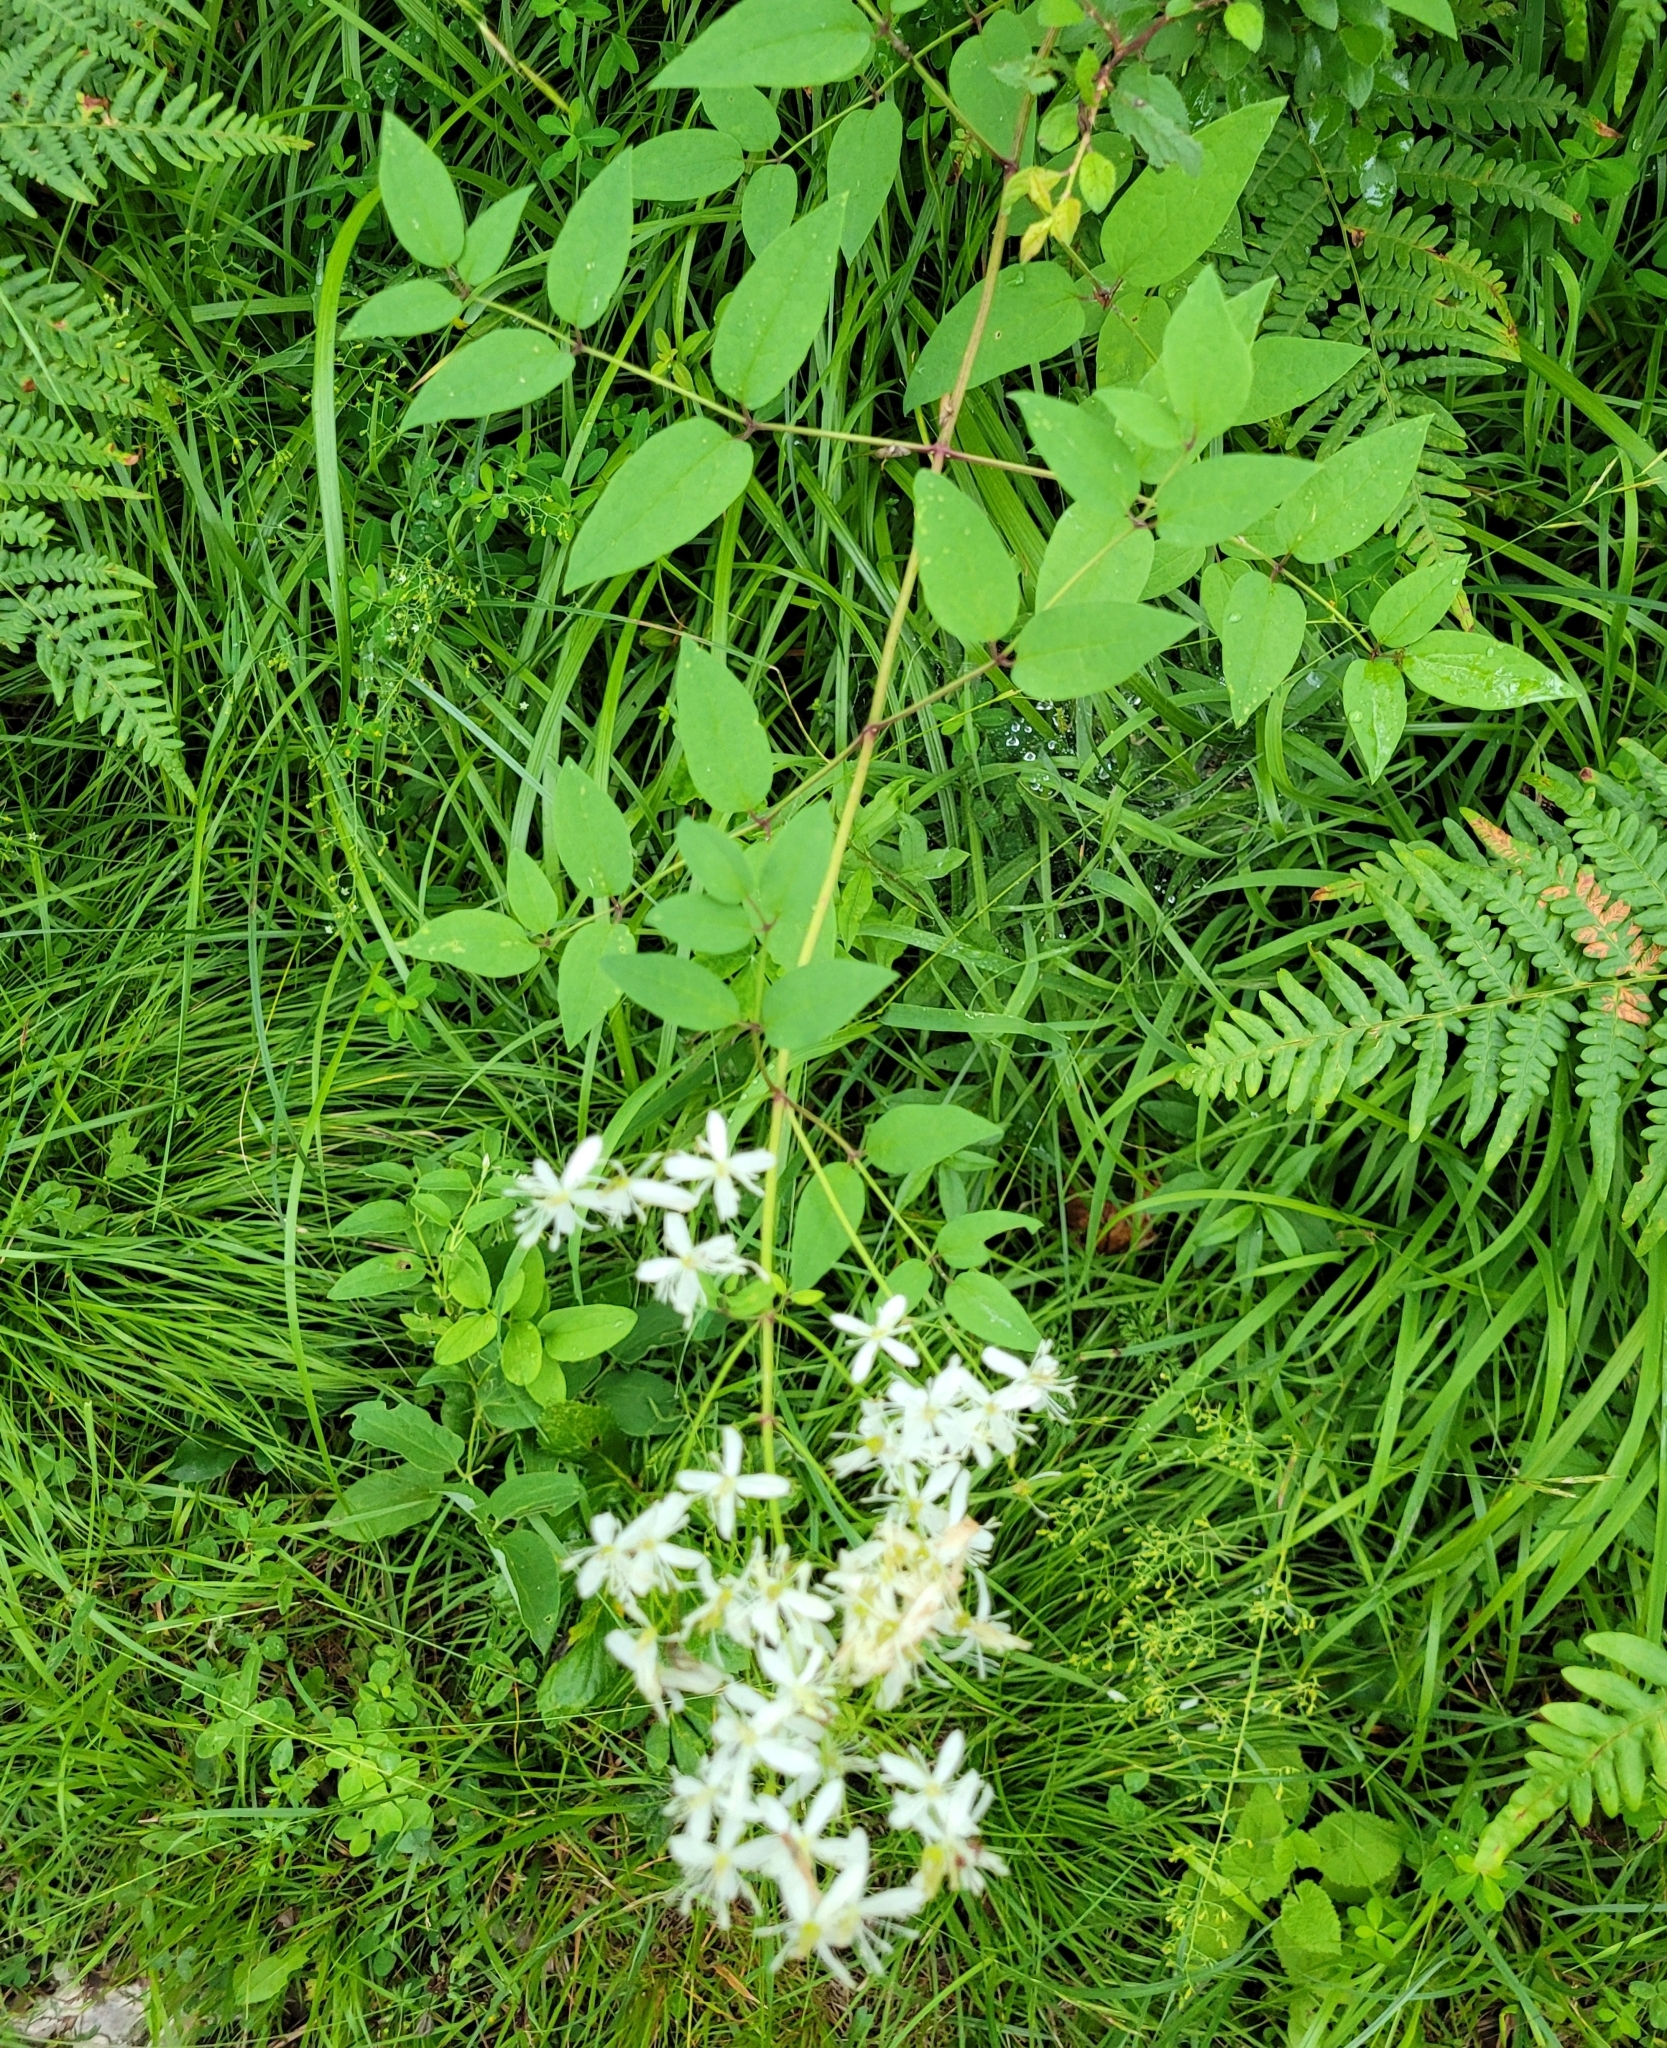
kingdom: Plantae
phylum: Tracheophyta
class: Magnoliopsida
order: Ranunculales
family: Ranunculaceae
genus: Clematis
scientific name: Clematis recta
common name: Ground clematis
